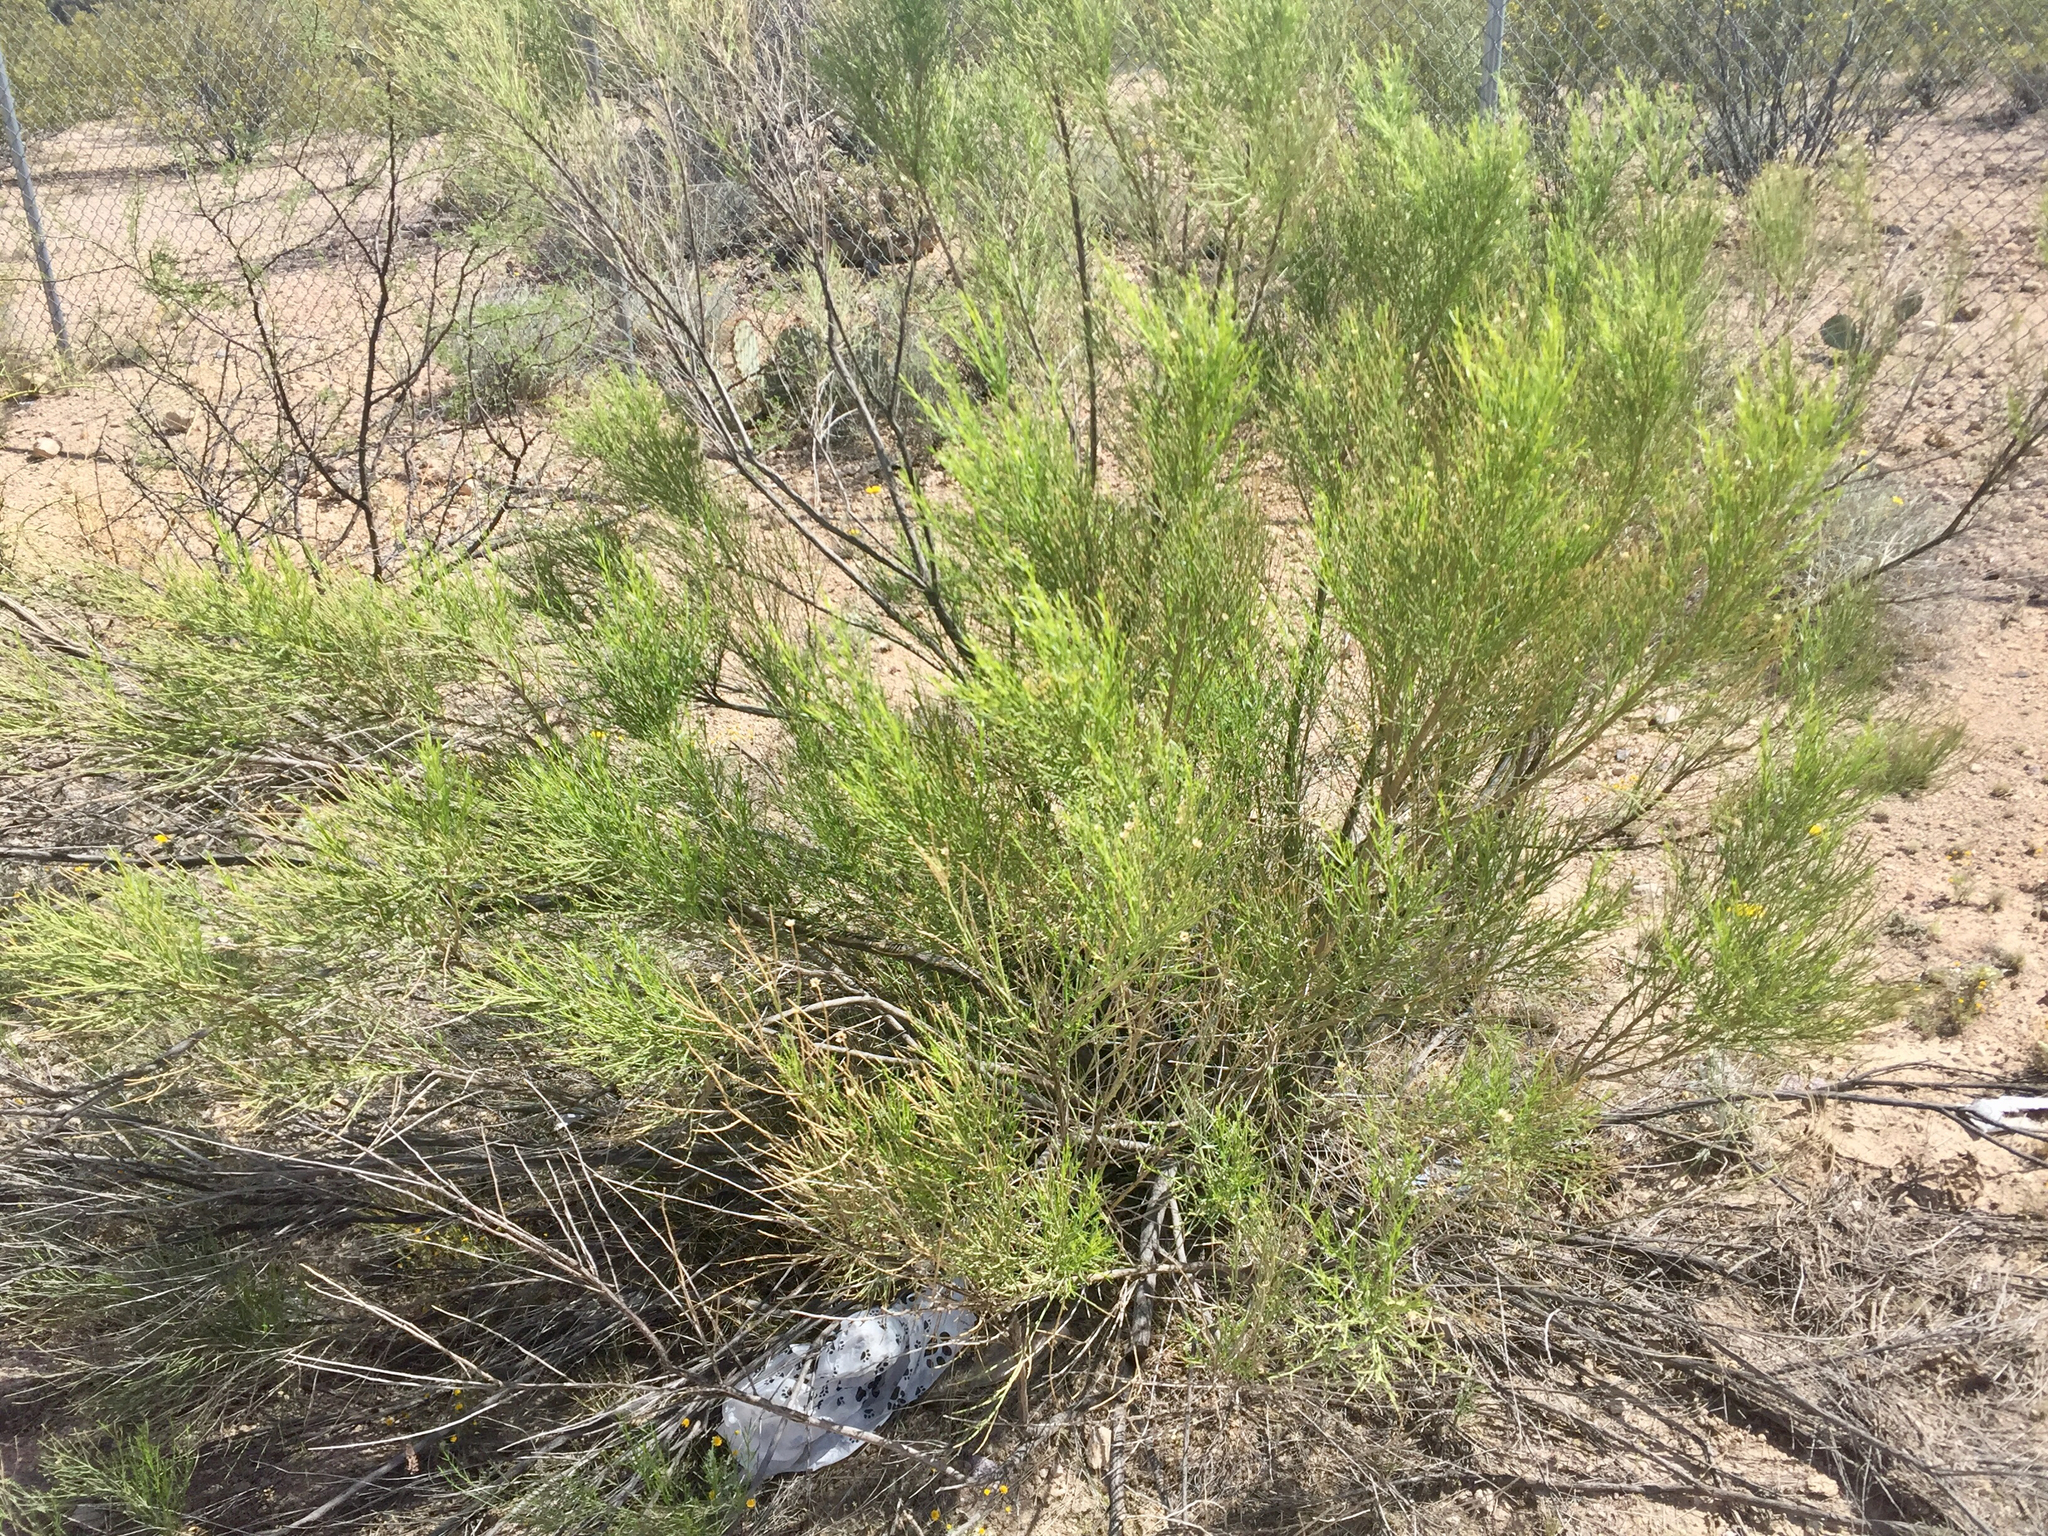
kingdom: Plantae
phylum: Tracheophyta
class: Magnoliopsida
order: Asterales
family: Asteraceae
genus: Baccharis
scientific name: Baccharis sarothroides
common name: Desert-broom
